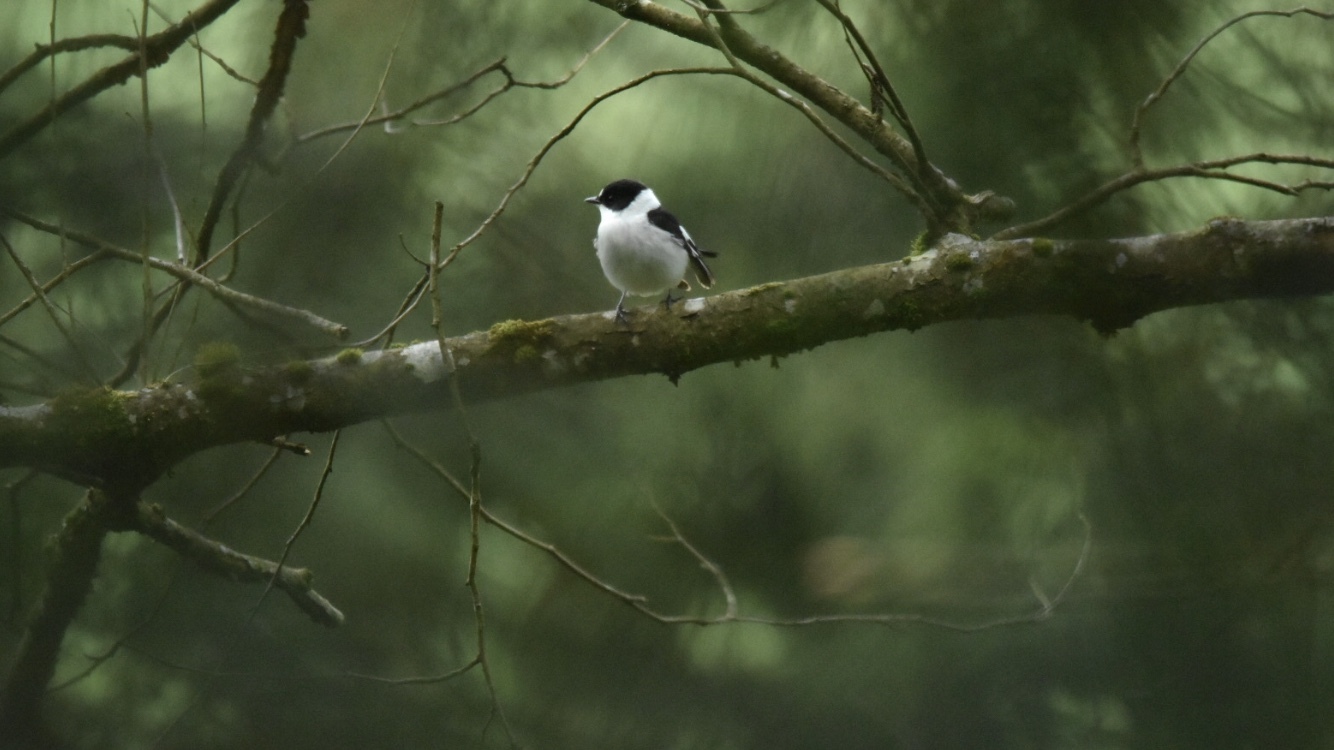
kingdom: Animalia
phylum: Chordata
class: Aves
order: Passeriformes
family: Muscicapidae
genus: Ficedula
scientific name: Ficedula albicollis
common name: Collared flycatcher
